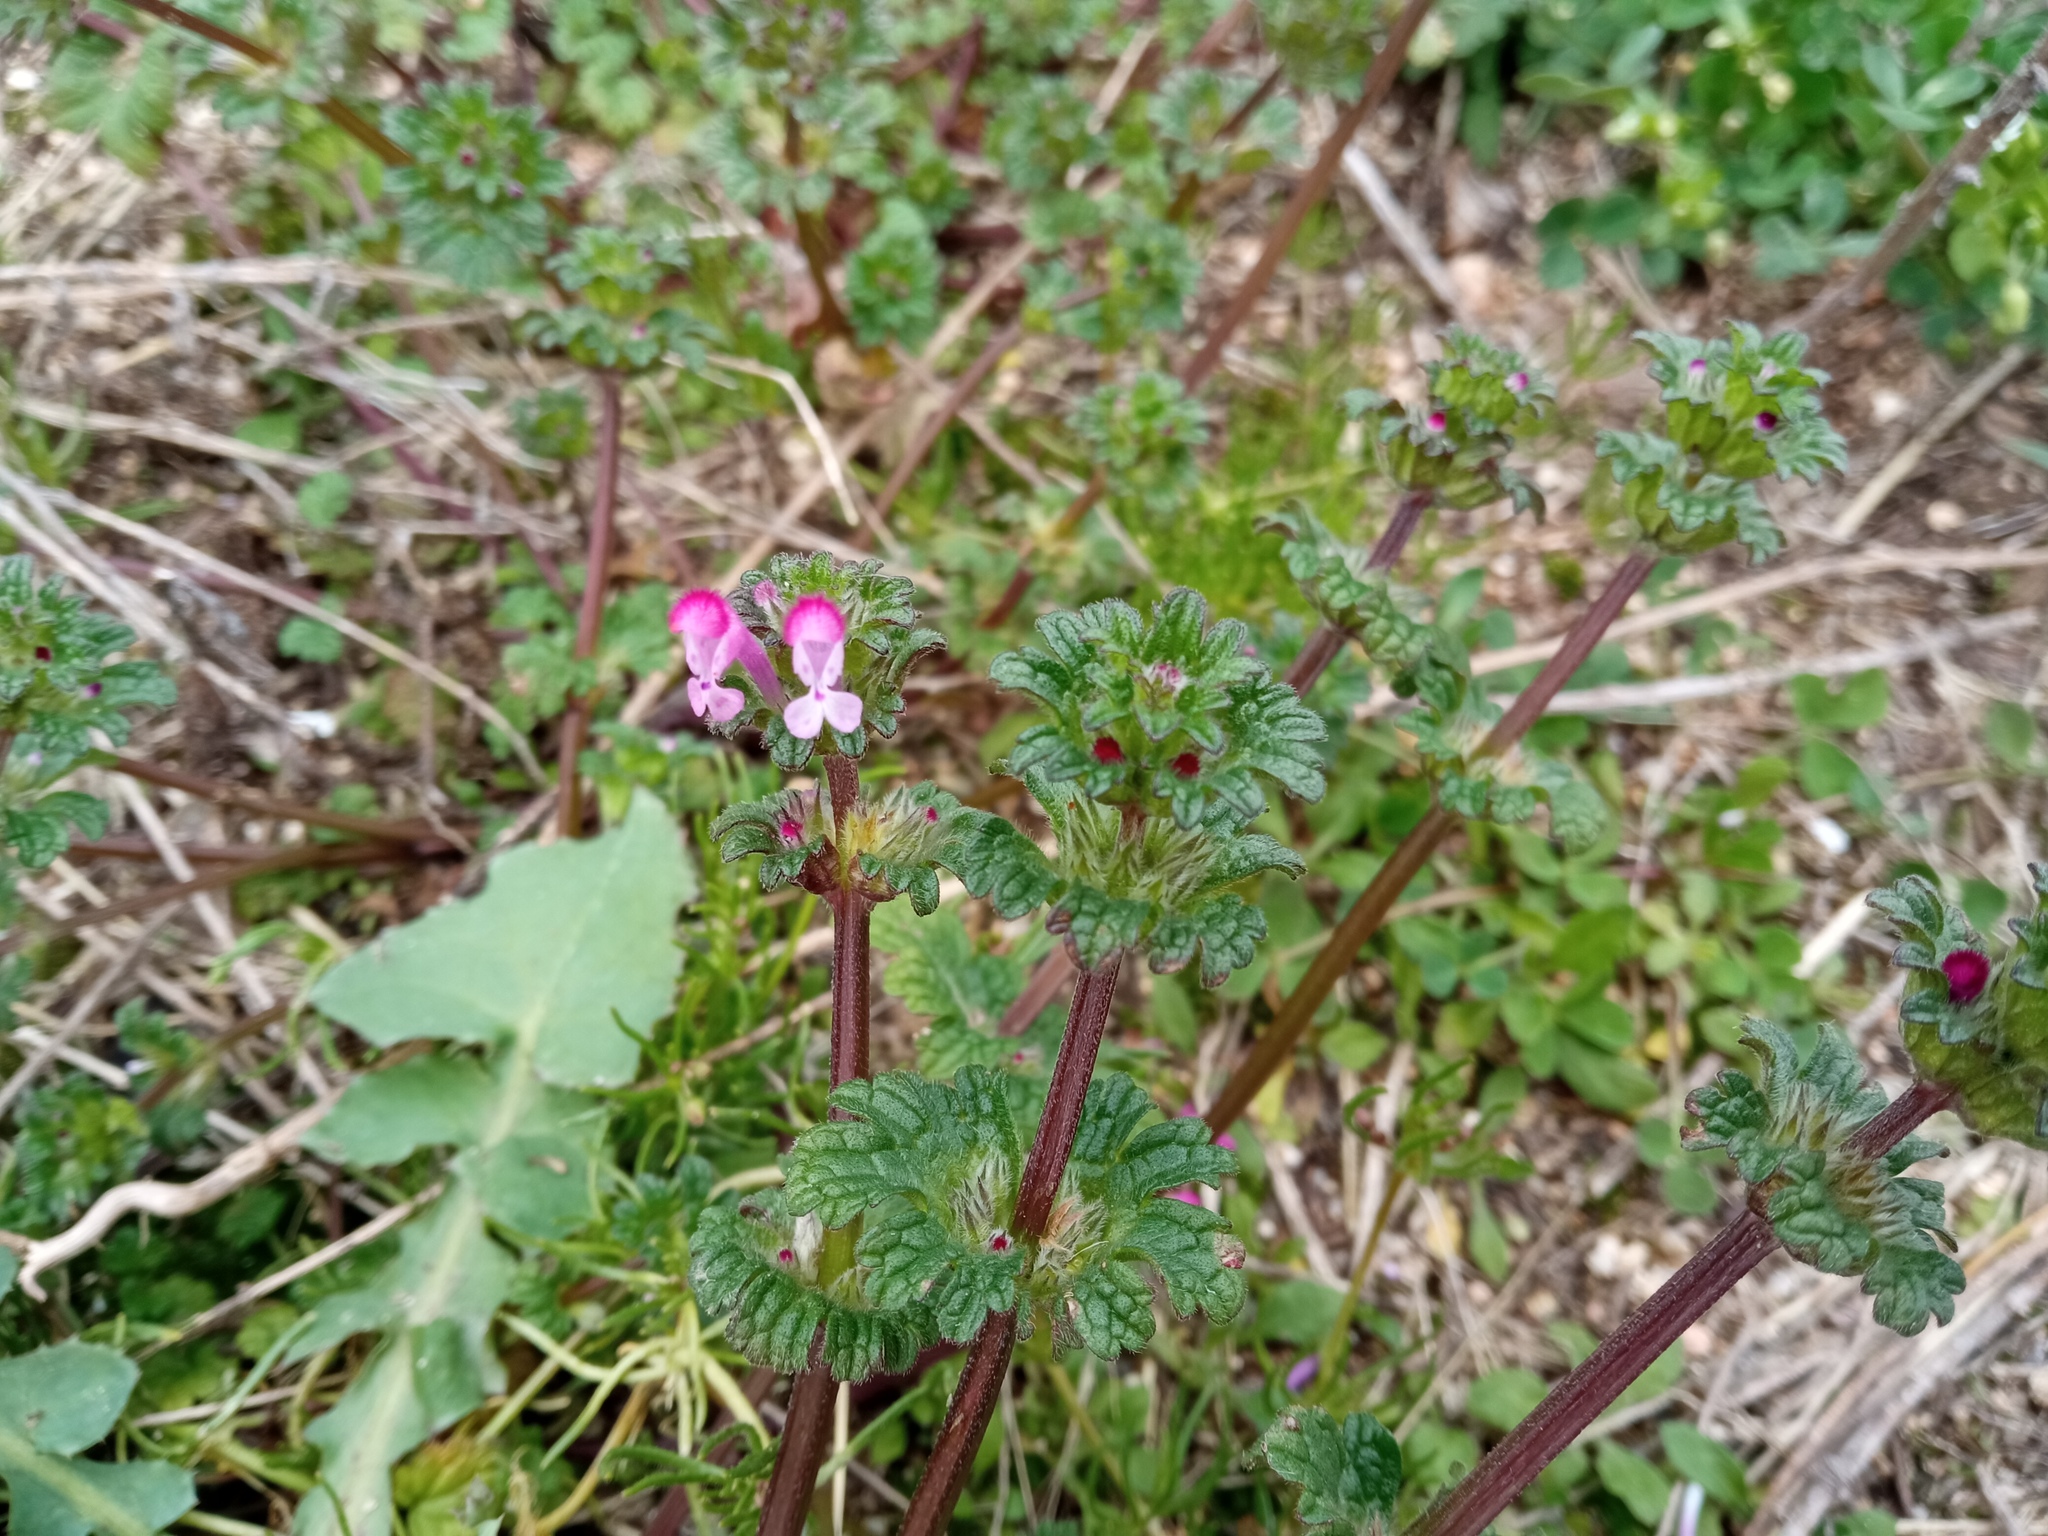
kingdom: Plantae
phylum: Tracheophyta
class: Magnoliopsida
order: Lamiales
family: Lamiaceae
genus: Lamium
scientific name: Lamium amplexicaule
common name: Henbit dead-nettle
